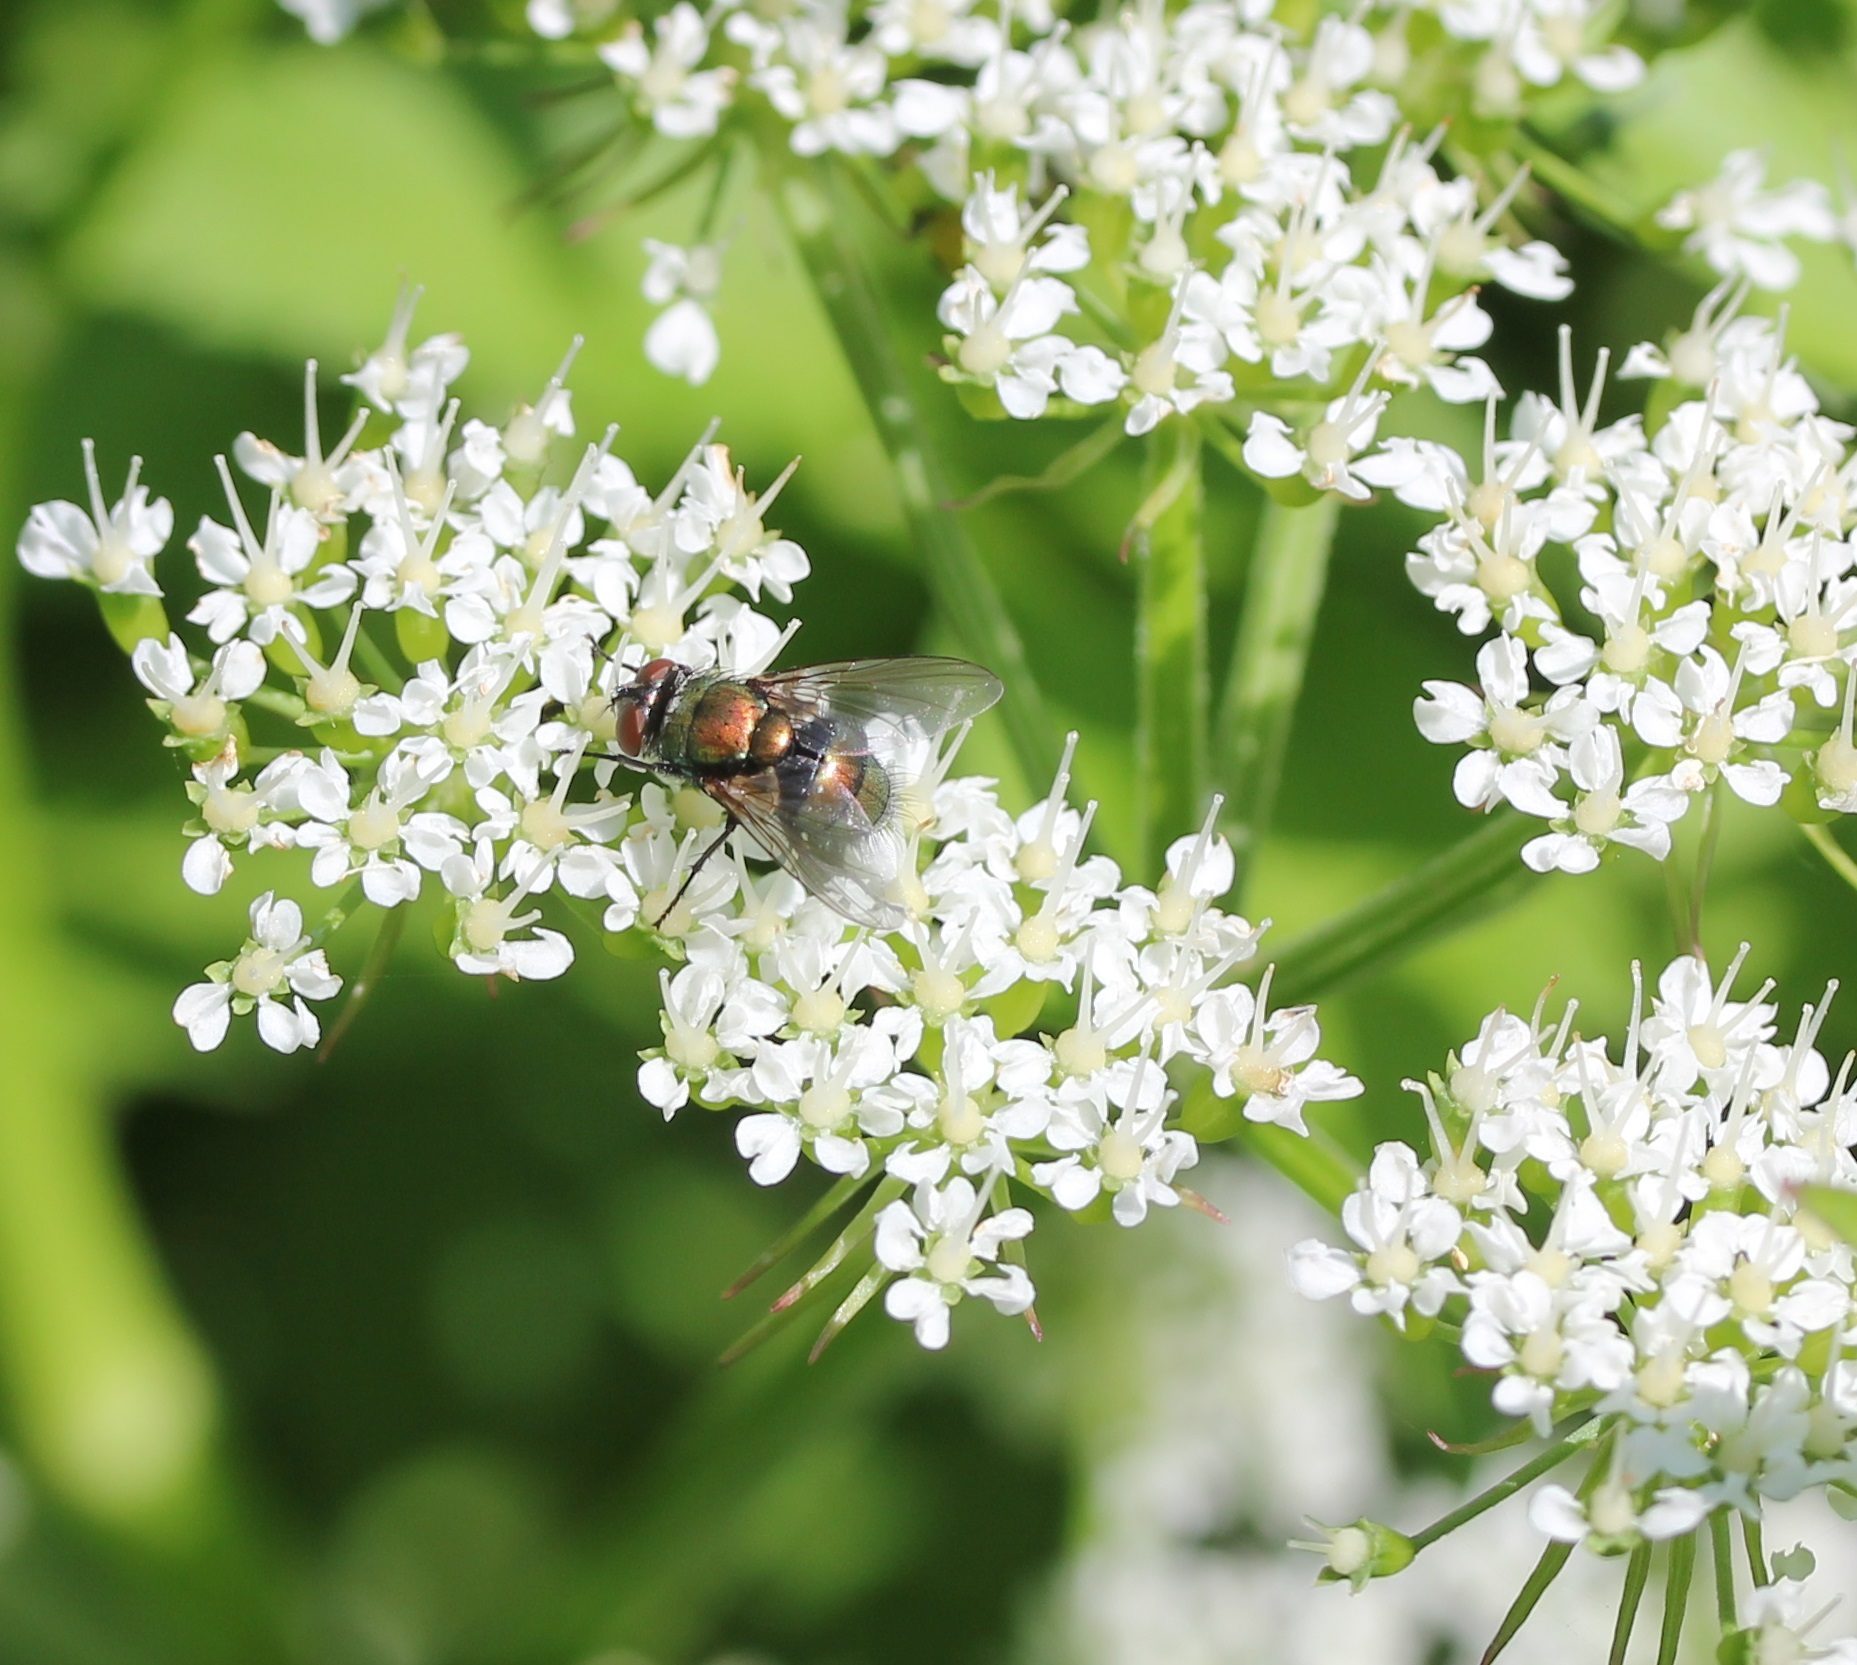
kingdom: Animalia
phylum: Arthropoda
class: Insecta
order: Diptera
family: Calliphoridae
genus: Lucilia
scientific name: Lucilia cuprina
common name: Sheep blow fly
